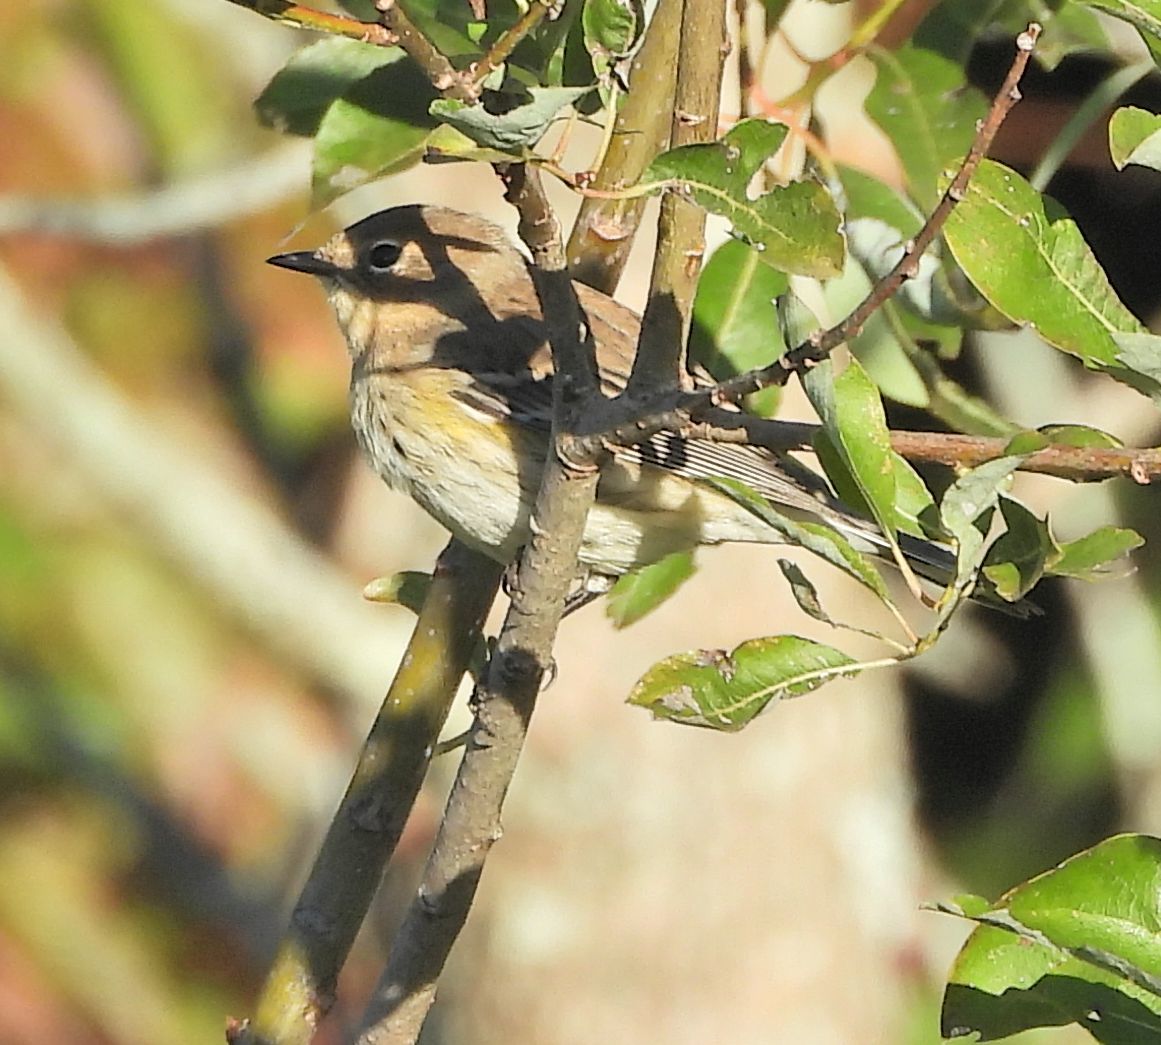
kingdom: Animalia
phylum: Chordata
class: Aves
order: Passeriformes
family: Parulidae
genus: Setophaga
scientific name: Setophaga coronata
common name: Myrtle warbler
